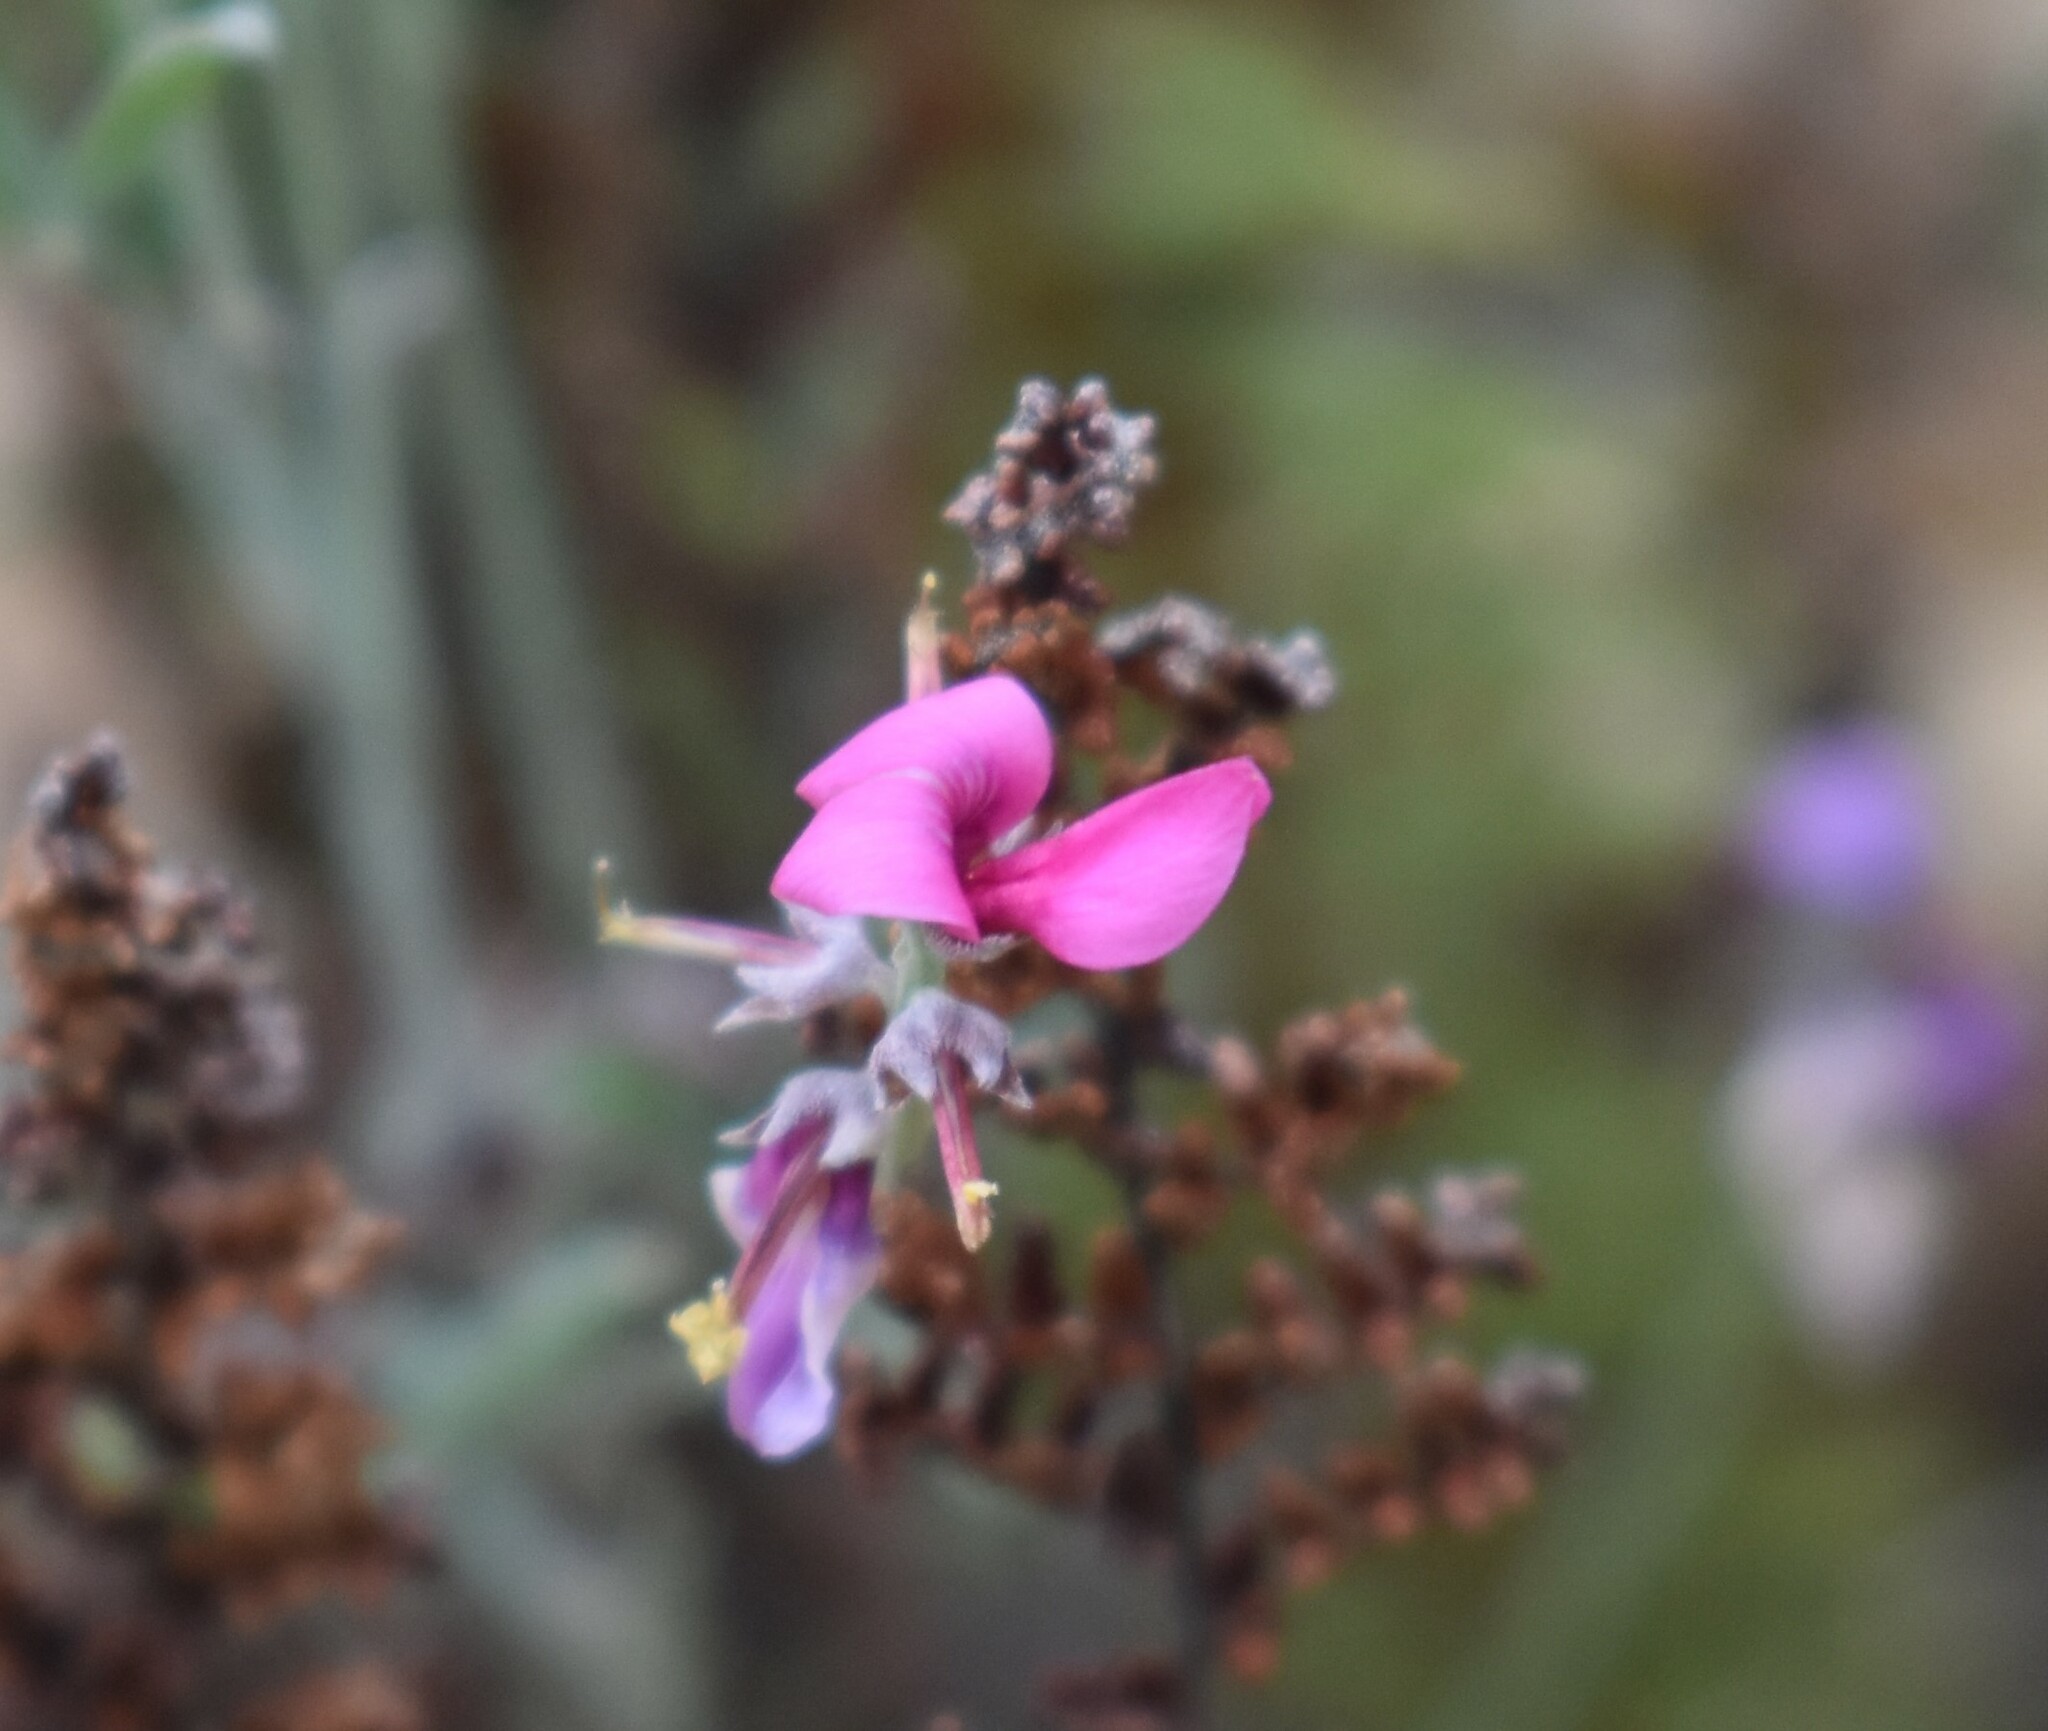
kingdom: Plantae
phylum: Tracheophyta
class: Magnoliopsida
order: Fabales
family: Fabaceae
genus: Indigofera
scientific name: Indigofera complicata
